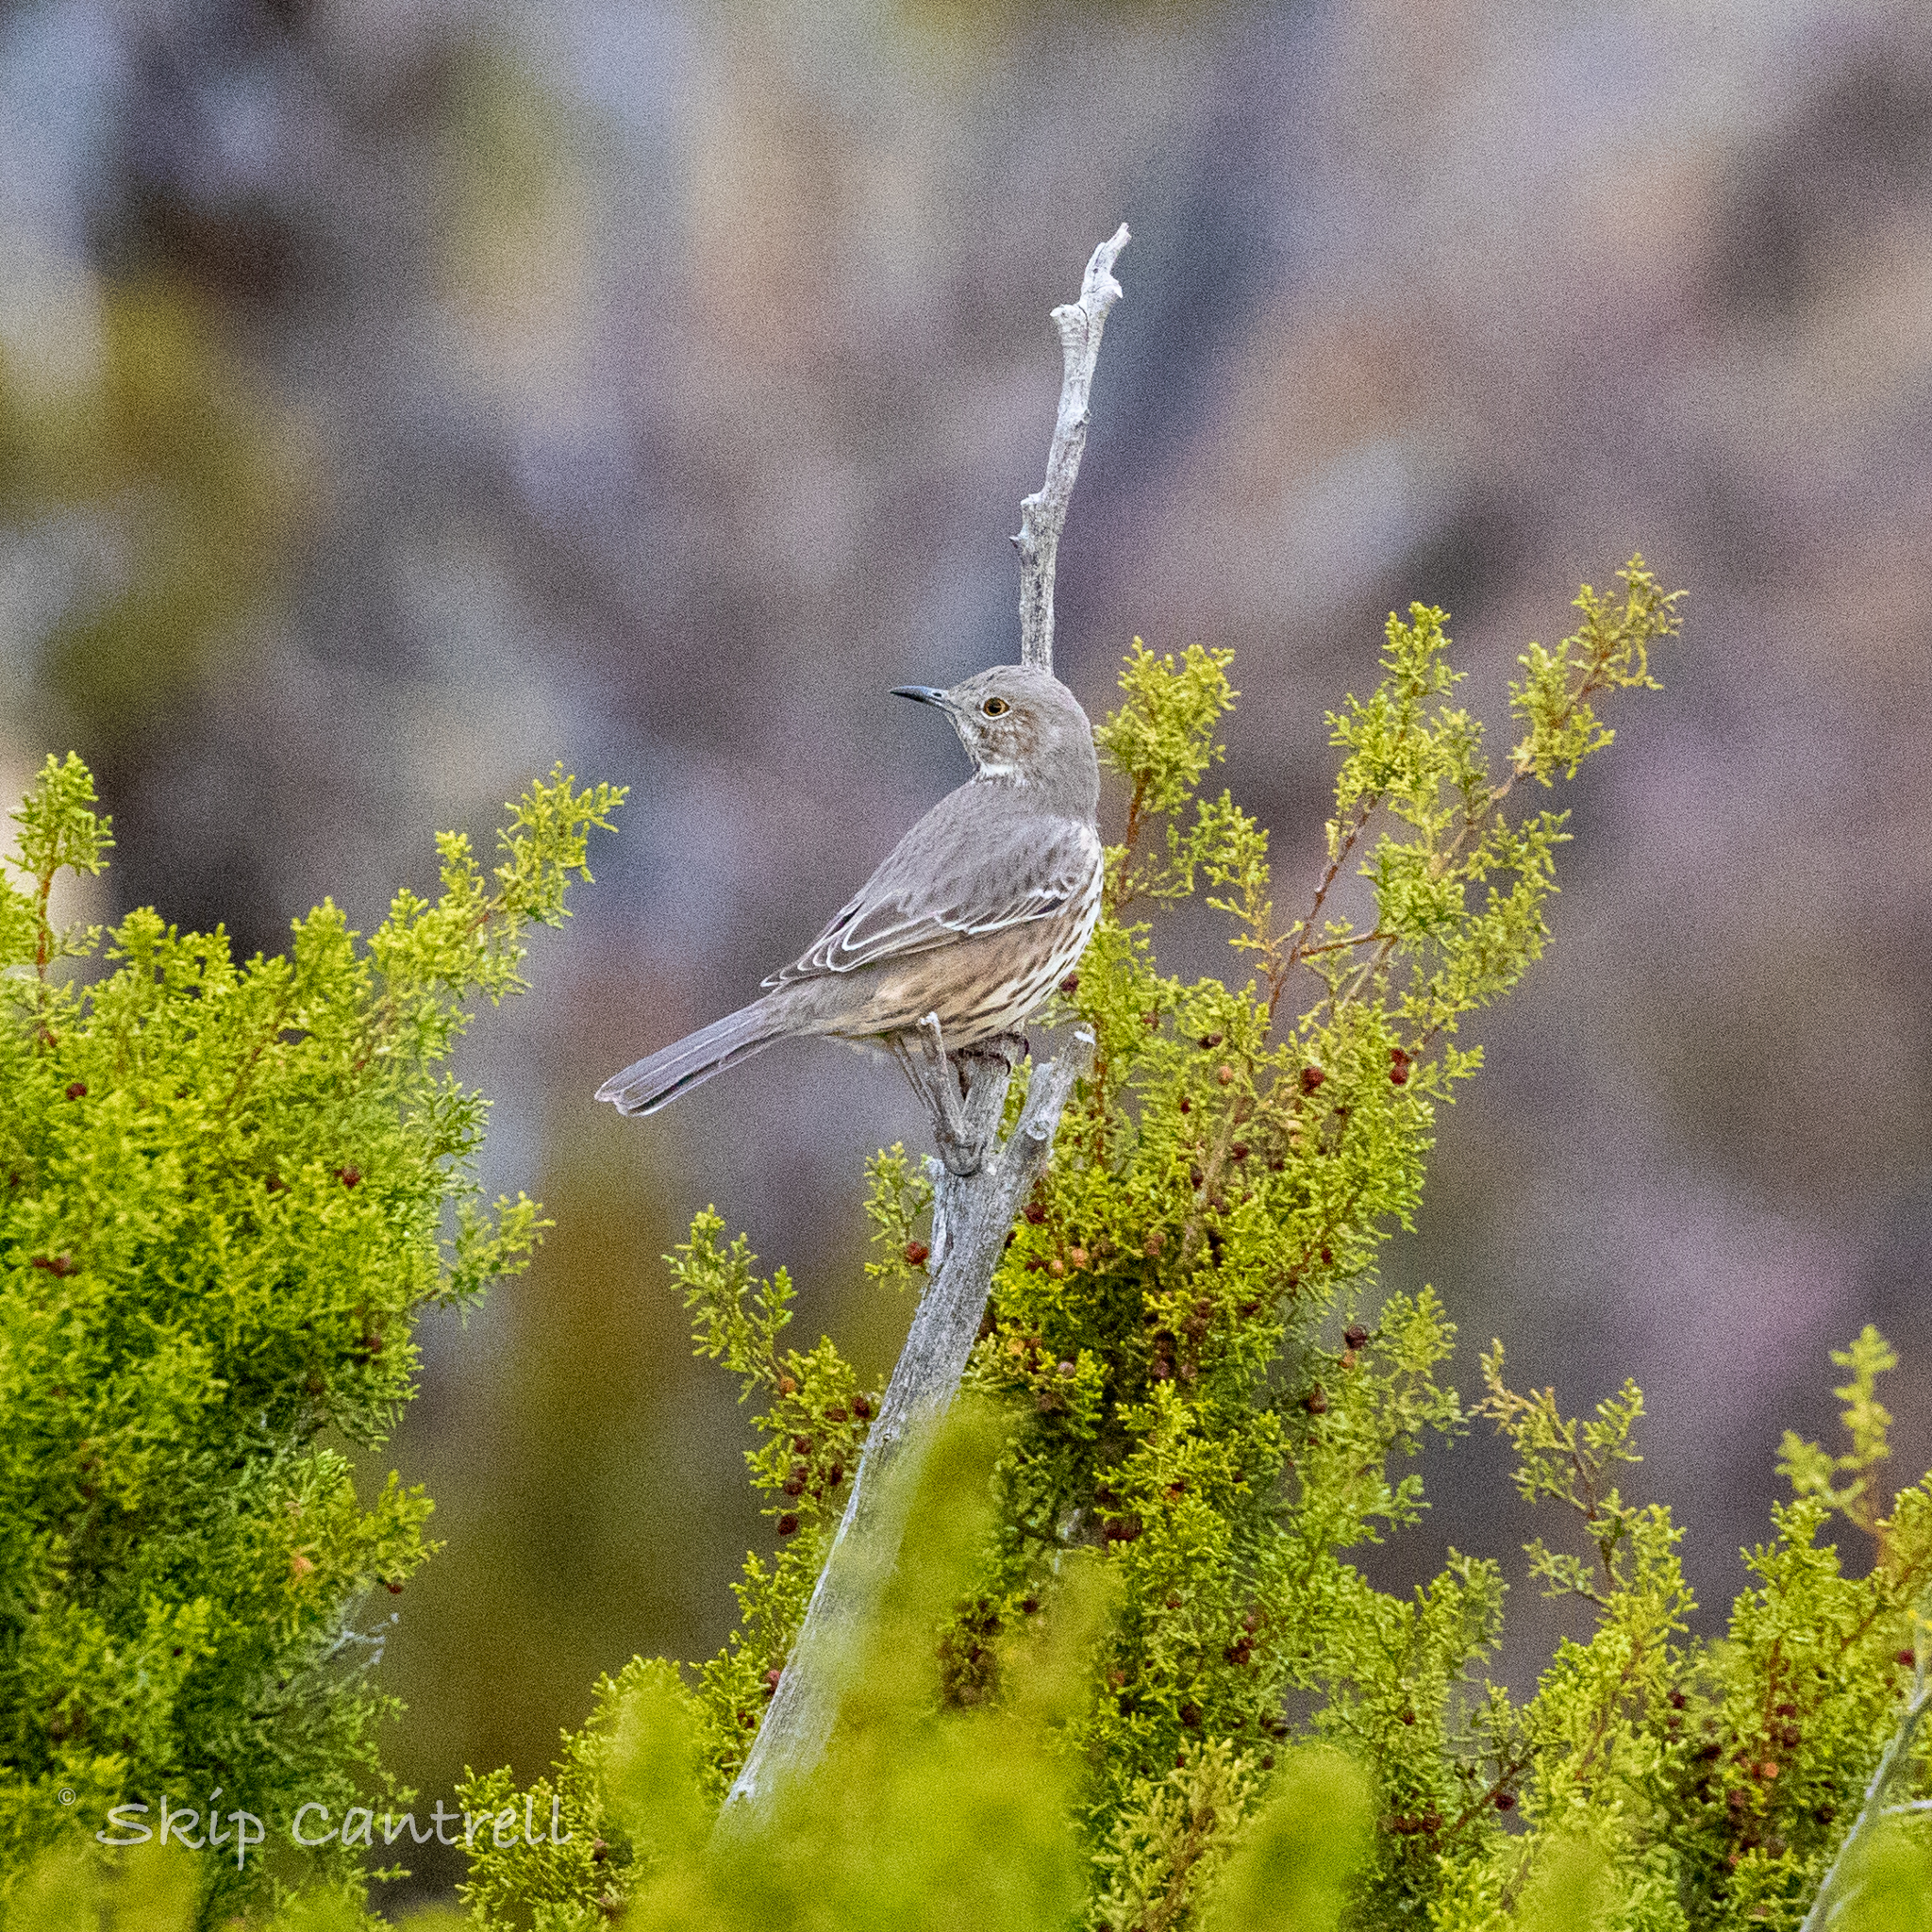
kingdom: Animalia
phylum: Chordata
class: Aves
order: Passeriformes
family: Mimidae
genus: Oreoscoptes
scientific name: Oreoscoptes montanus
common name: Sage thrasher
